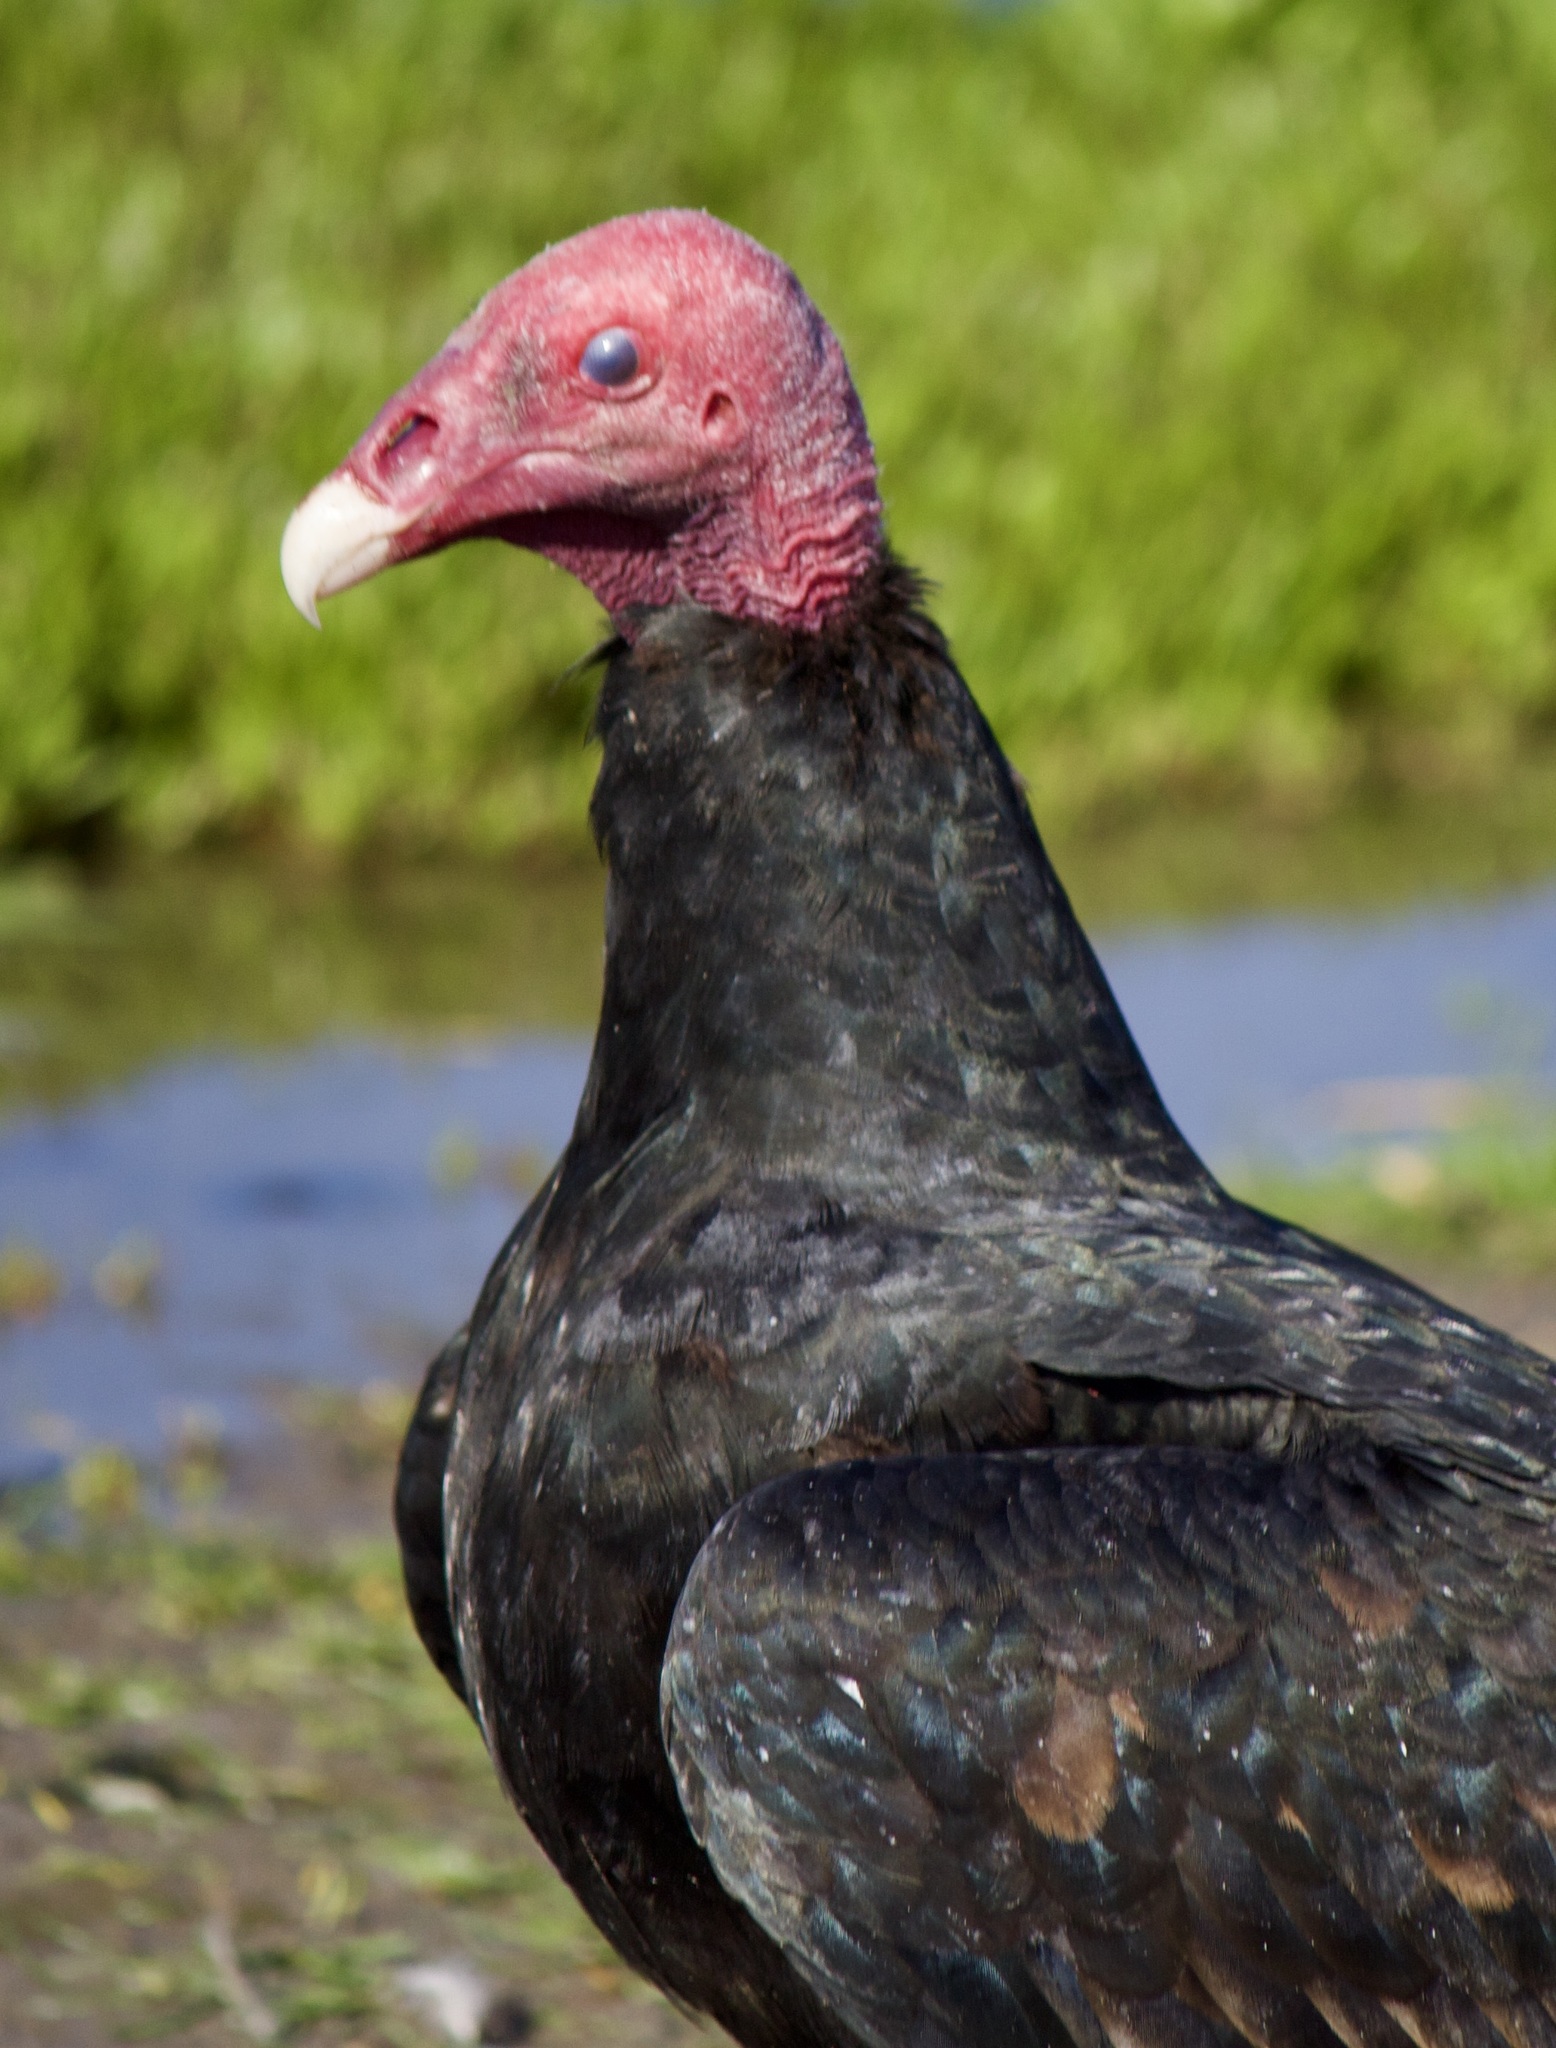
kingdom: Animalia
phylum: Chordata
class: Aves
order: Accipitriformes
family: Cathartidae
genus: Cathartes
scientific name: Cathartes aura
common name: Turkey vulture
